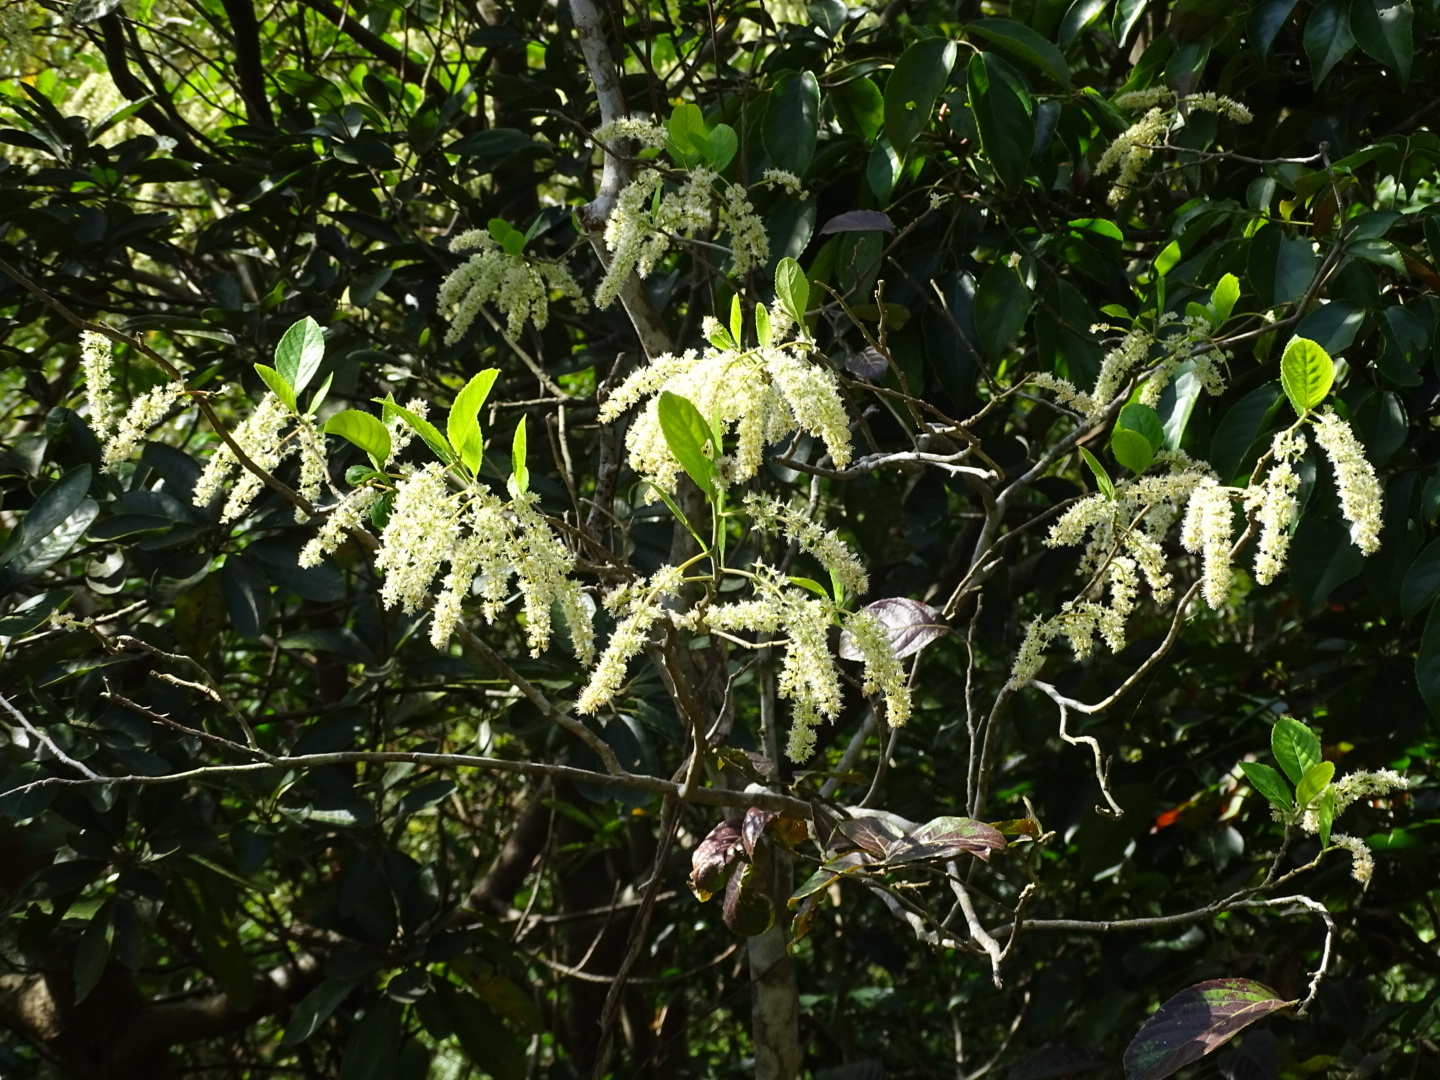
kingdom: Plantae
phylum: Tracheophyta
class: Magnoliopsida
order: Malpighiales
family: Salicaceae
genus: Homalium
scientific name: Homalium cochinchinensis
